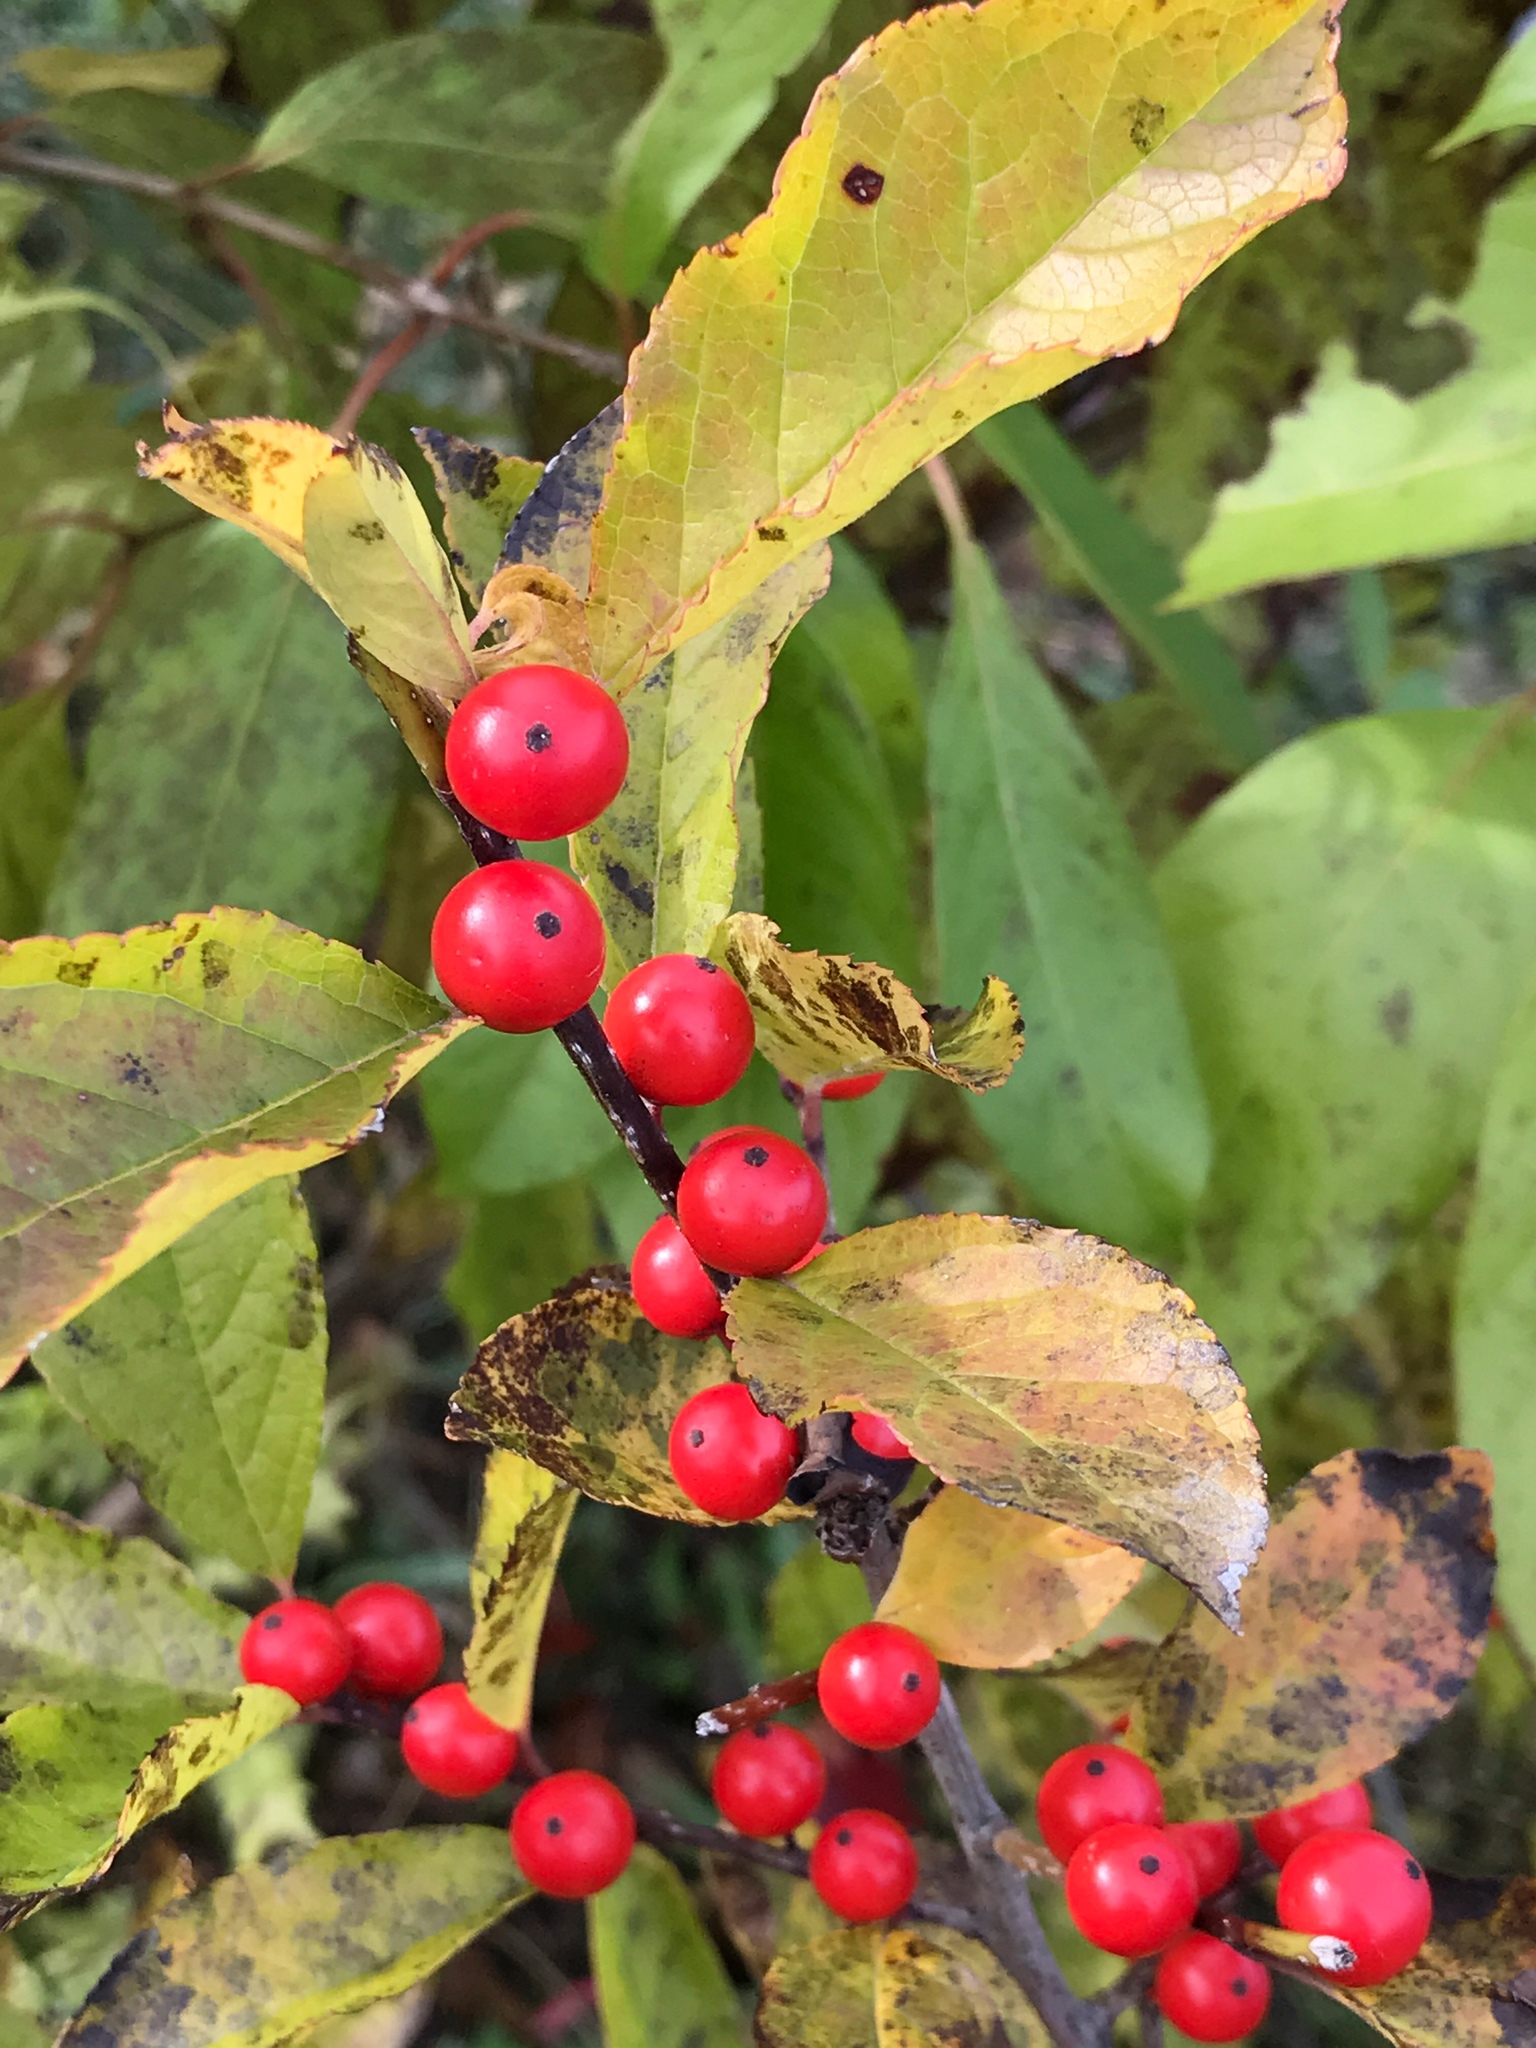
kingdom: Plantae
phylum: Tracheophyta
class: Magnoliopsida
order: Aquifoliales
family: Aquifoliaceae
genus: Ilex
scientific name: Ilex verticillata
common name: Virginia winterberry
